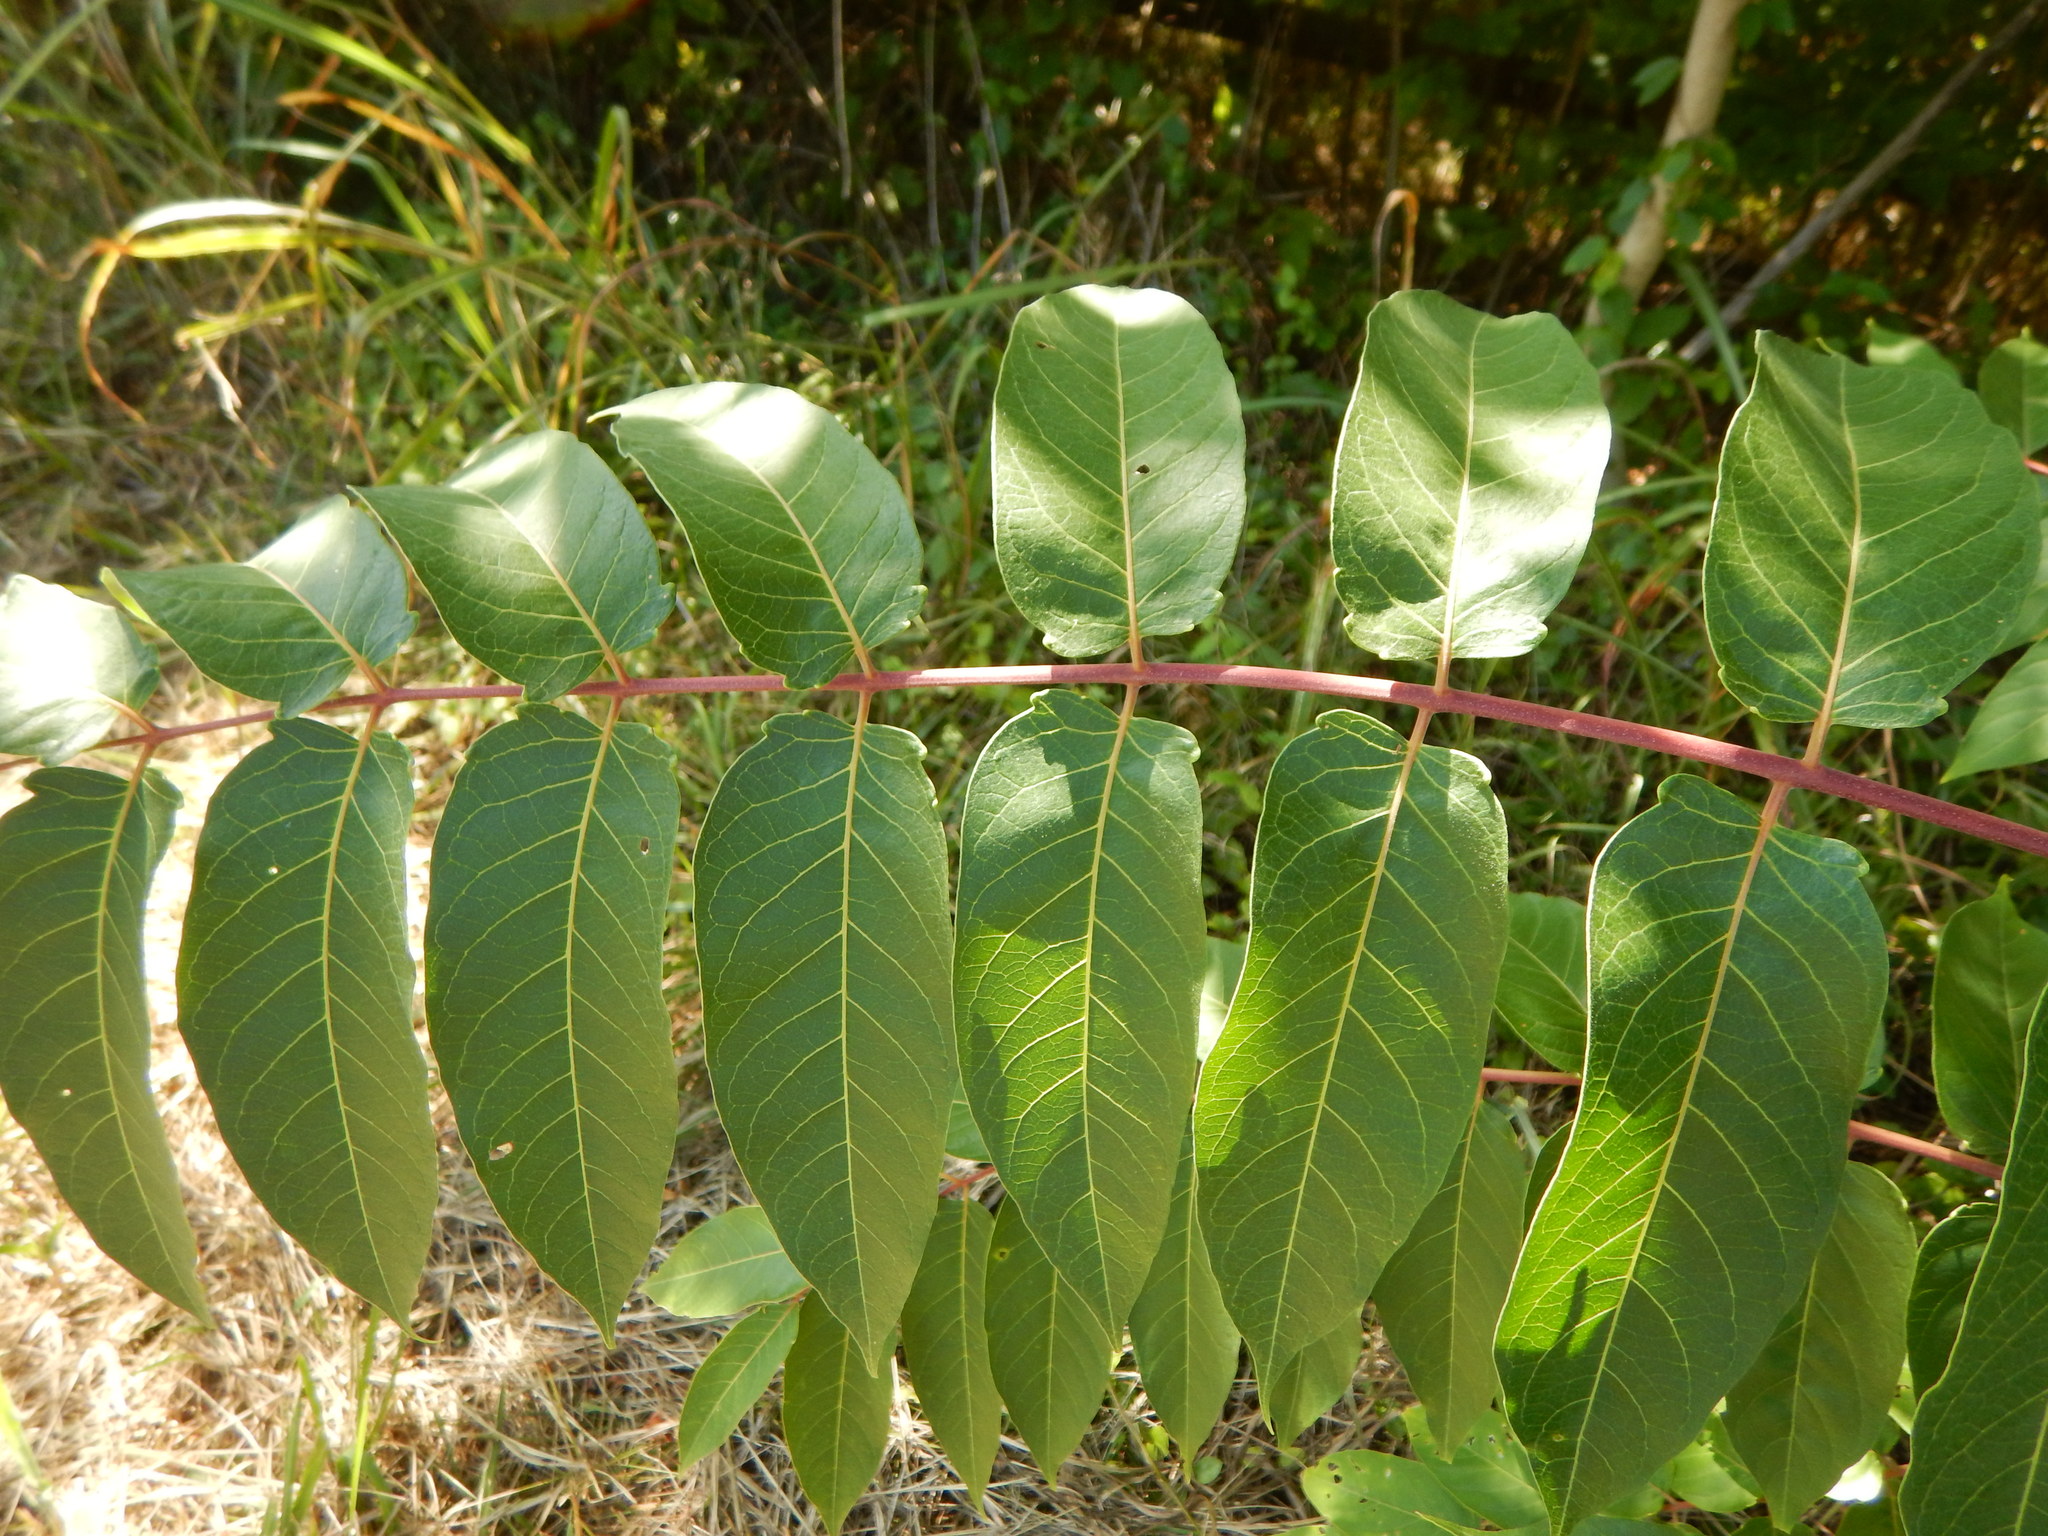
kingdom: Plantae
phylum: Tracheophyta
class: Magnoliopsida
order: Sapindales
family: Simaroubaceae
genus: Ailanthus
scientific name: Ailanthus altissima
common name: Tree-of-heaven
